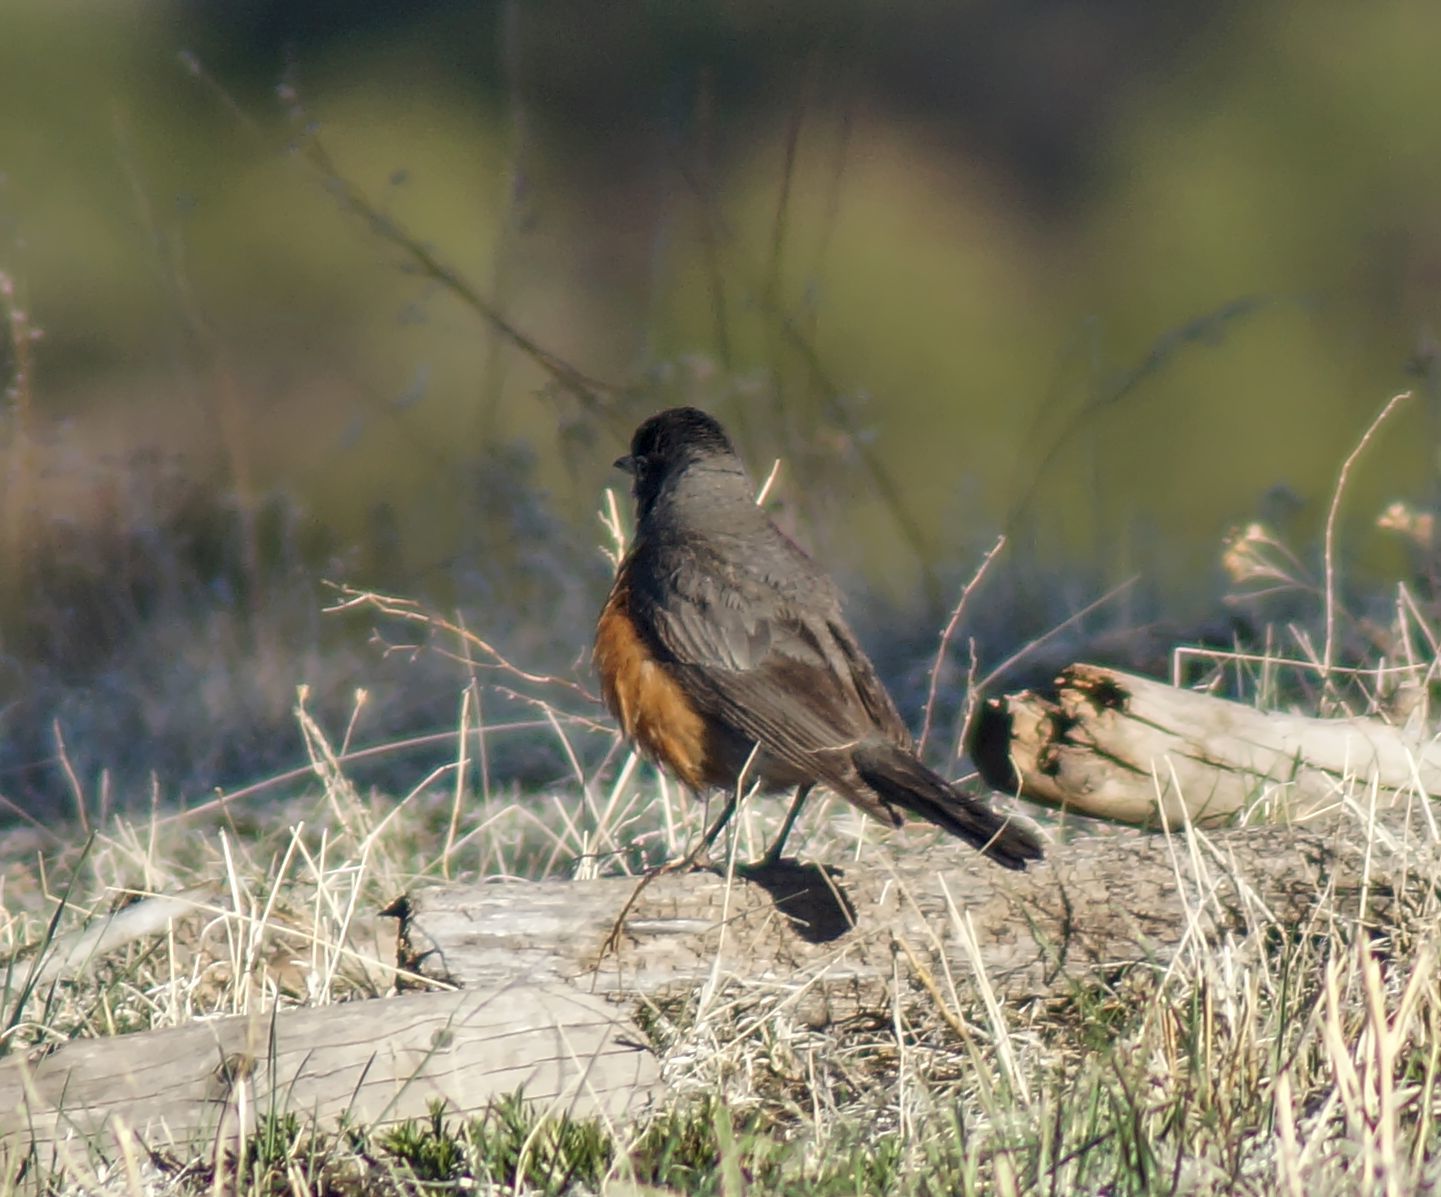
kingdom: Animalia
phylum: Chordata
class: Aves
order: Passeriformes
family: Turdidae
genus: Turdus
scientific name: Turdus migratorius
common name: American robin
